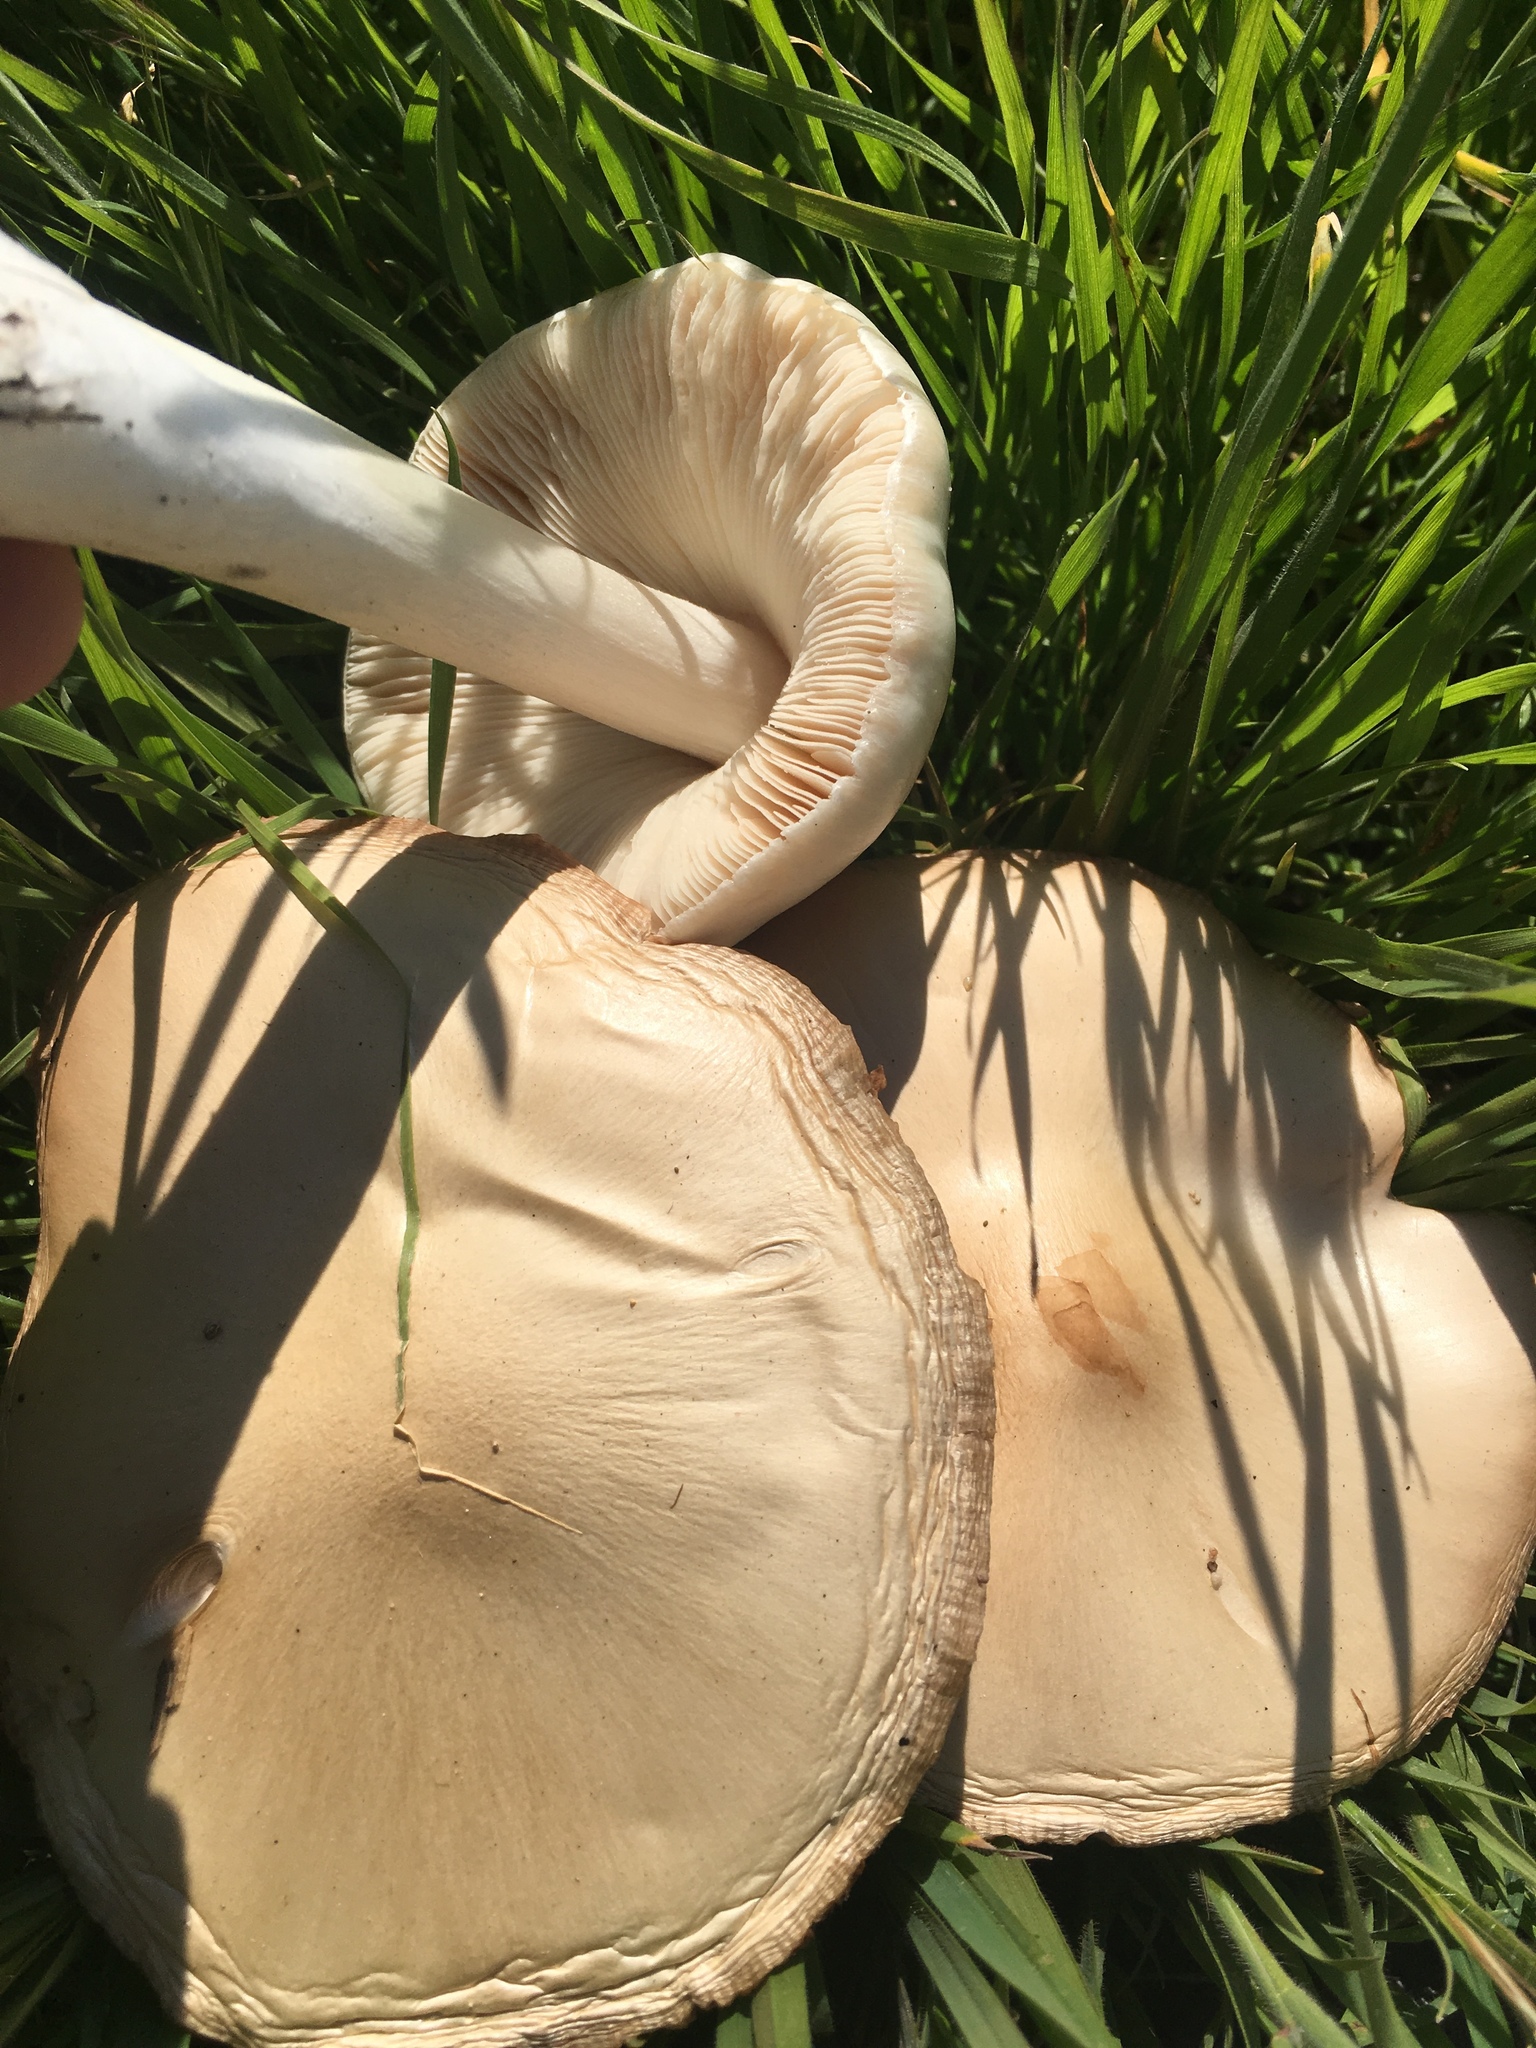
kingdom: Fungi
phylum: Basidiomycota
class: Agaricomycetes
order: Agaricales
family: Pluteaceae
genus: Volvopluteus
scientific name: Volvopluteus gloiocephalus
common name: Stubble rosegill
